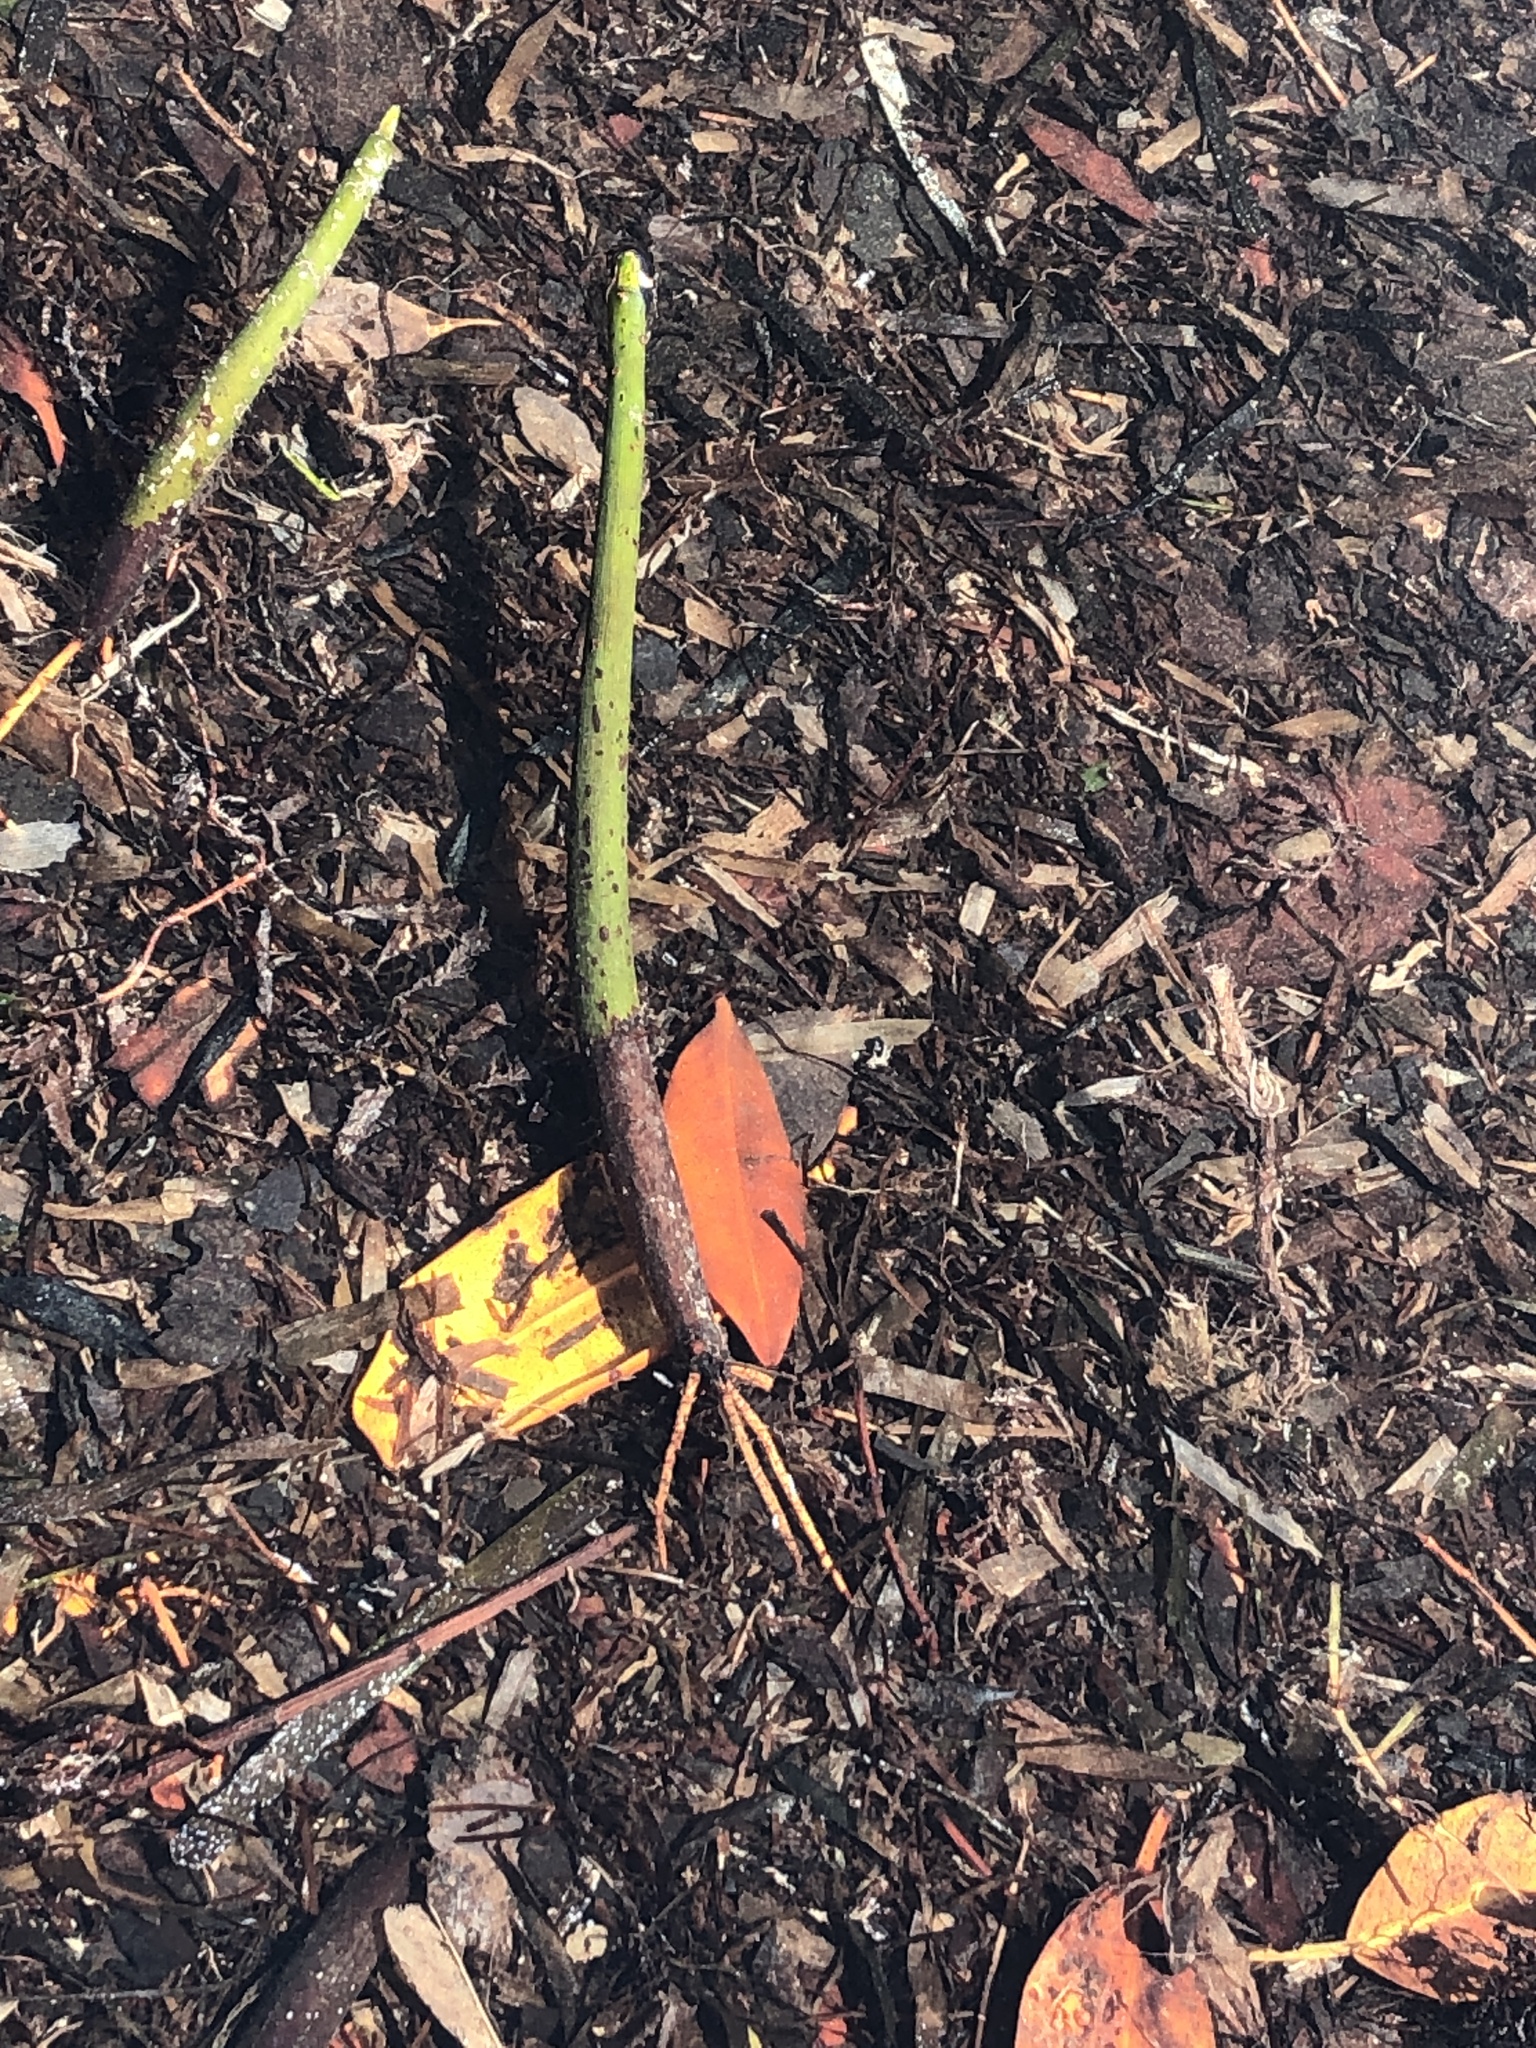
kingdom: Plantae
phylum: Tracheophyta
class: Magnoliopsida
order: Malpighiales
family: Rhizophoraceae
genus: Rhizophora
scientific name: Rhizophora mangle
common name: Red mangrove
